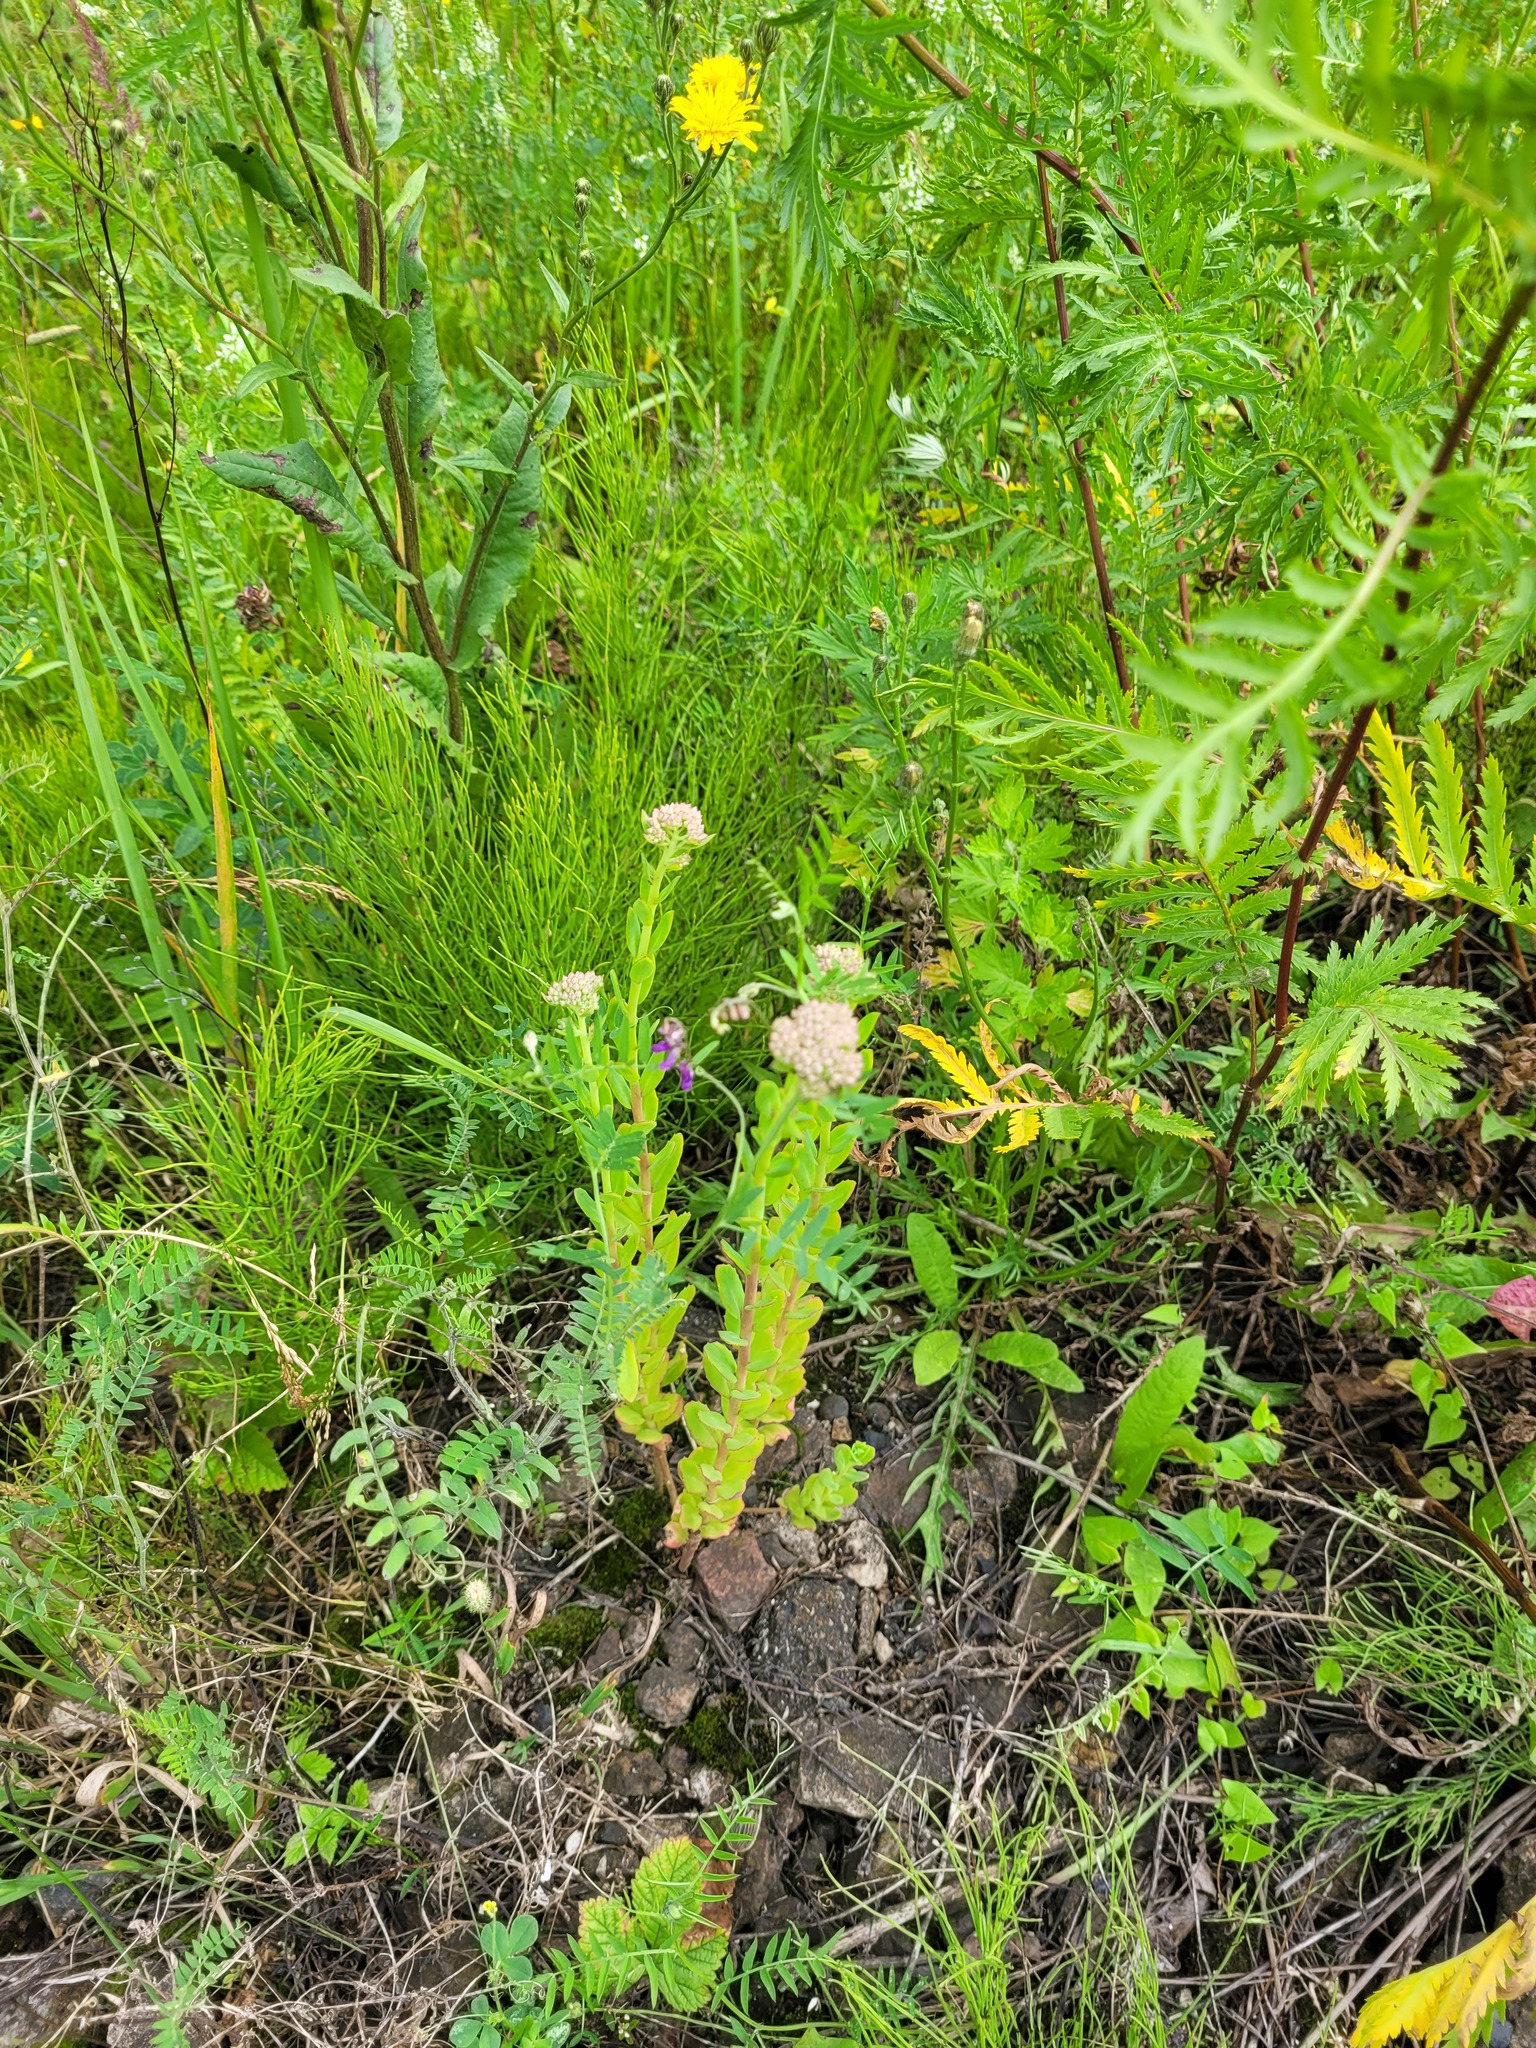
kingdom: Plantae
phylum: Tracheophyta
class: Magnoliopsida
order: Saxifragales
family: Crassulaceae
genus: Hylotelephium
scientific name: Hylotelephium telephium
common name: Live-forever
